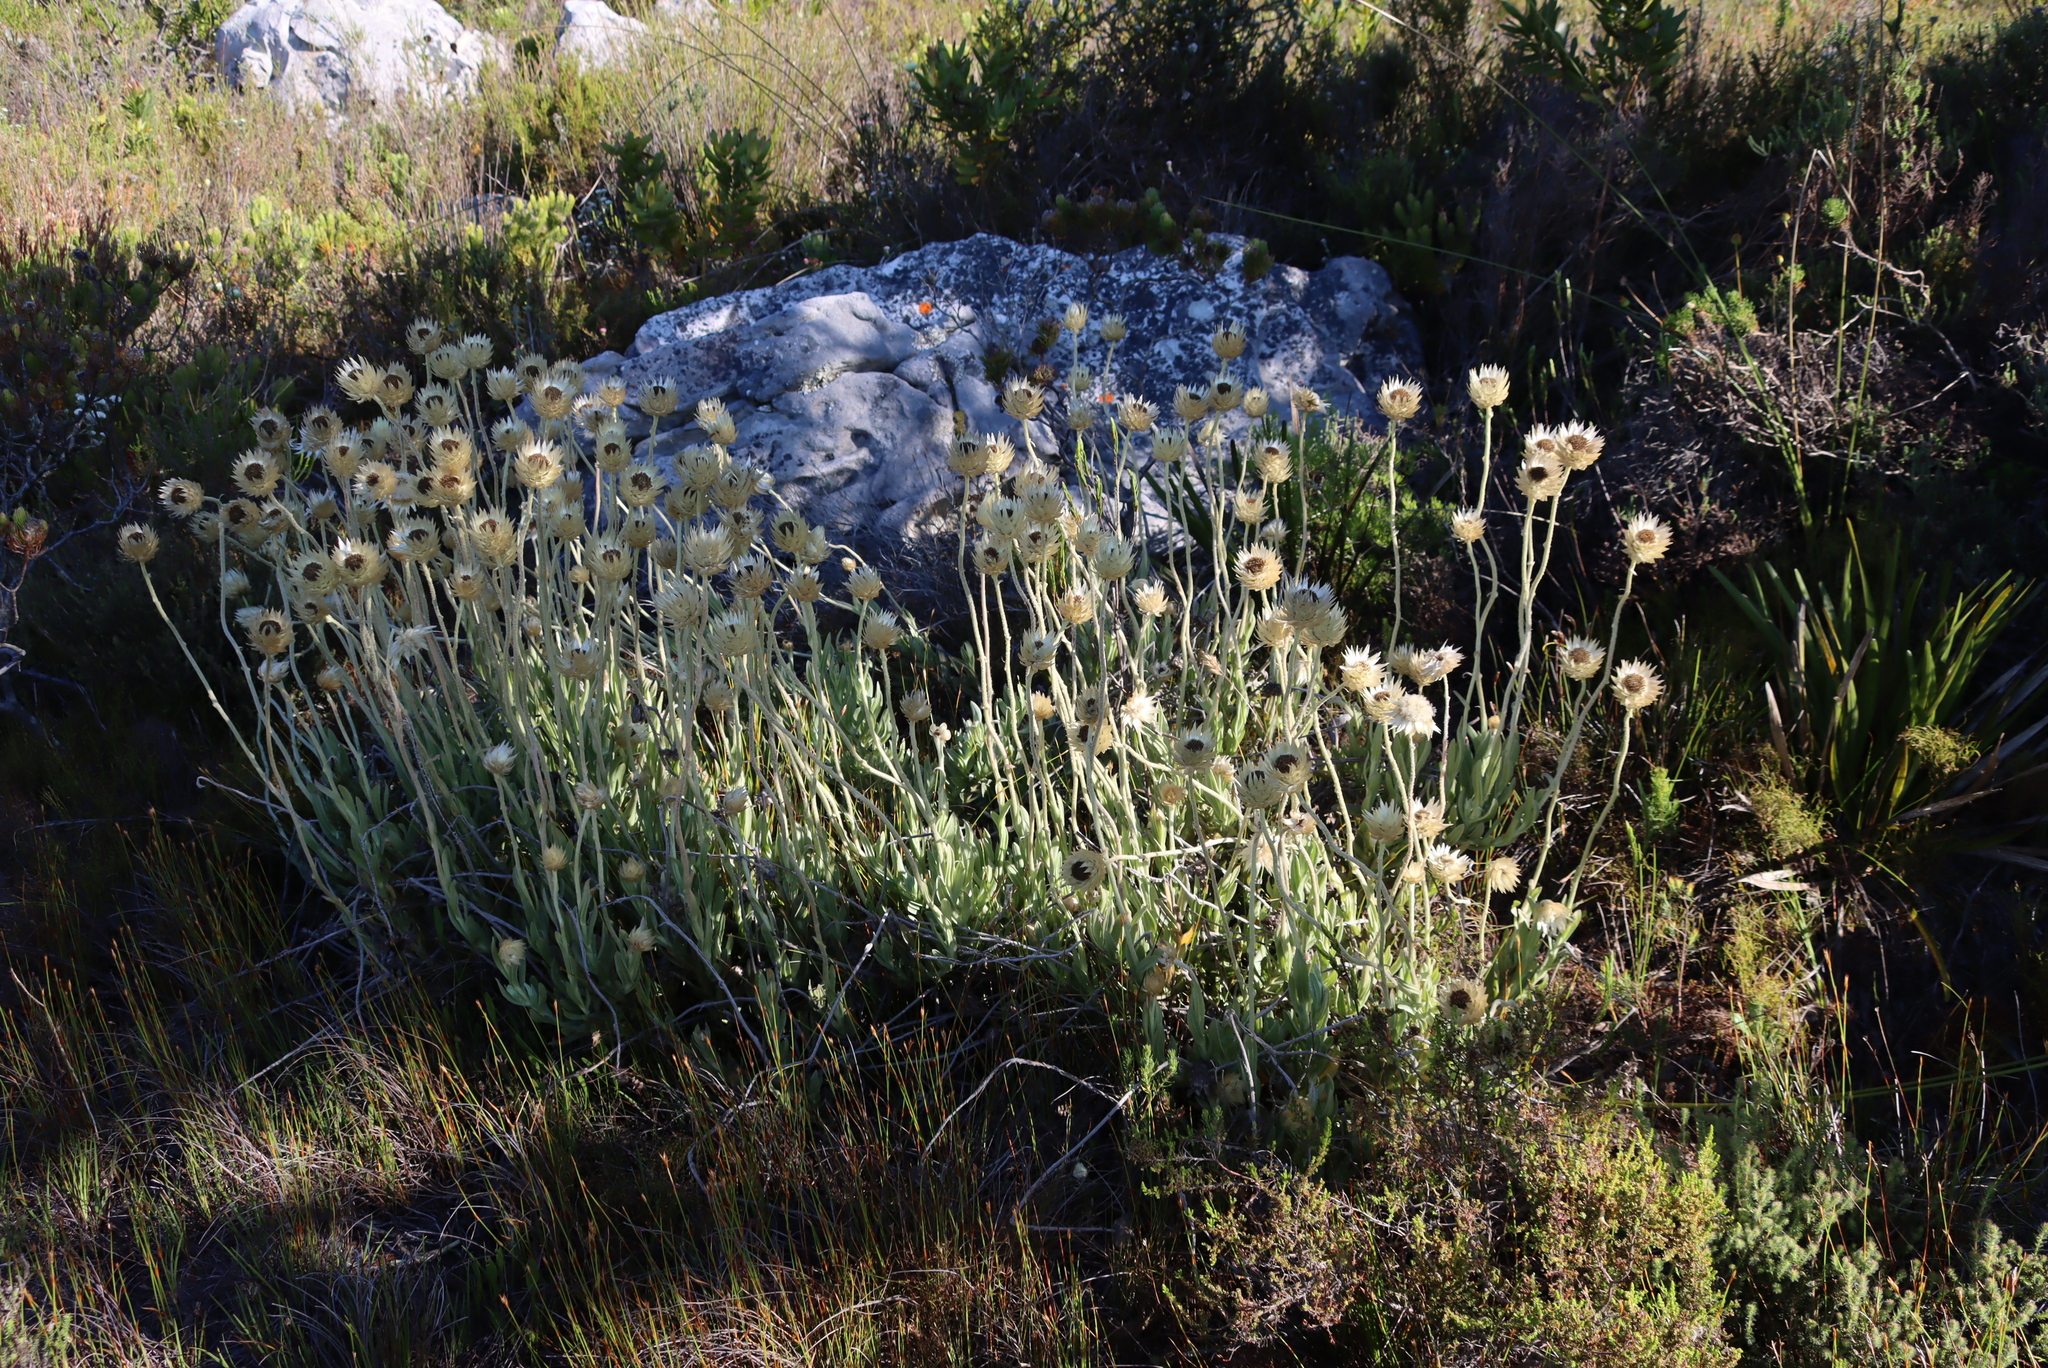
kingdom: Plantae
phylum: Tracheophyta
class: Magnoliopsida
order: Asterales
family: Asteraceae
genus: Syncarpha
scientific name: Syncarpha speciosissima
